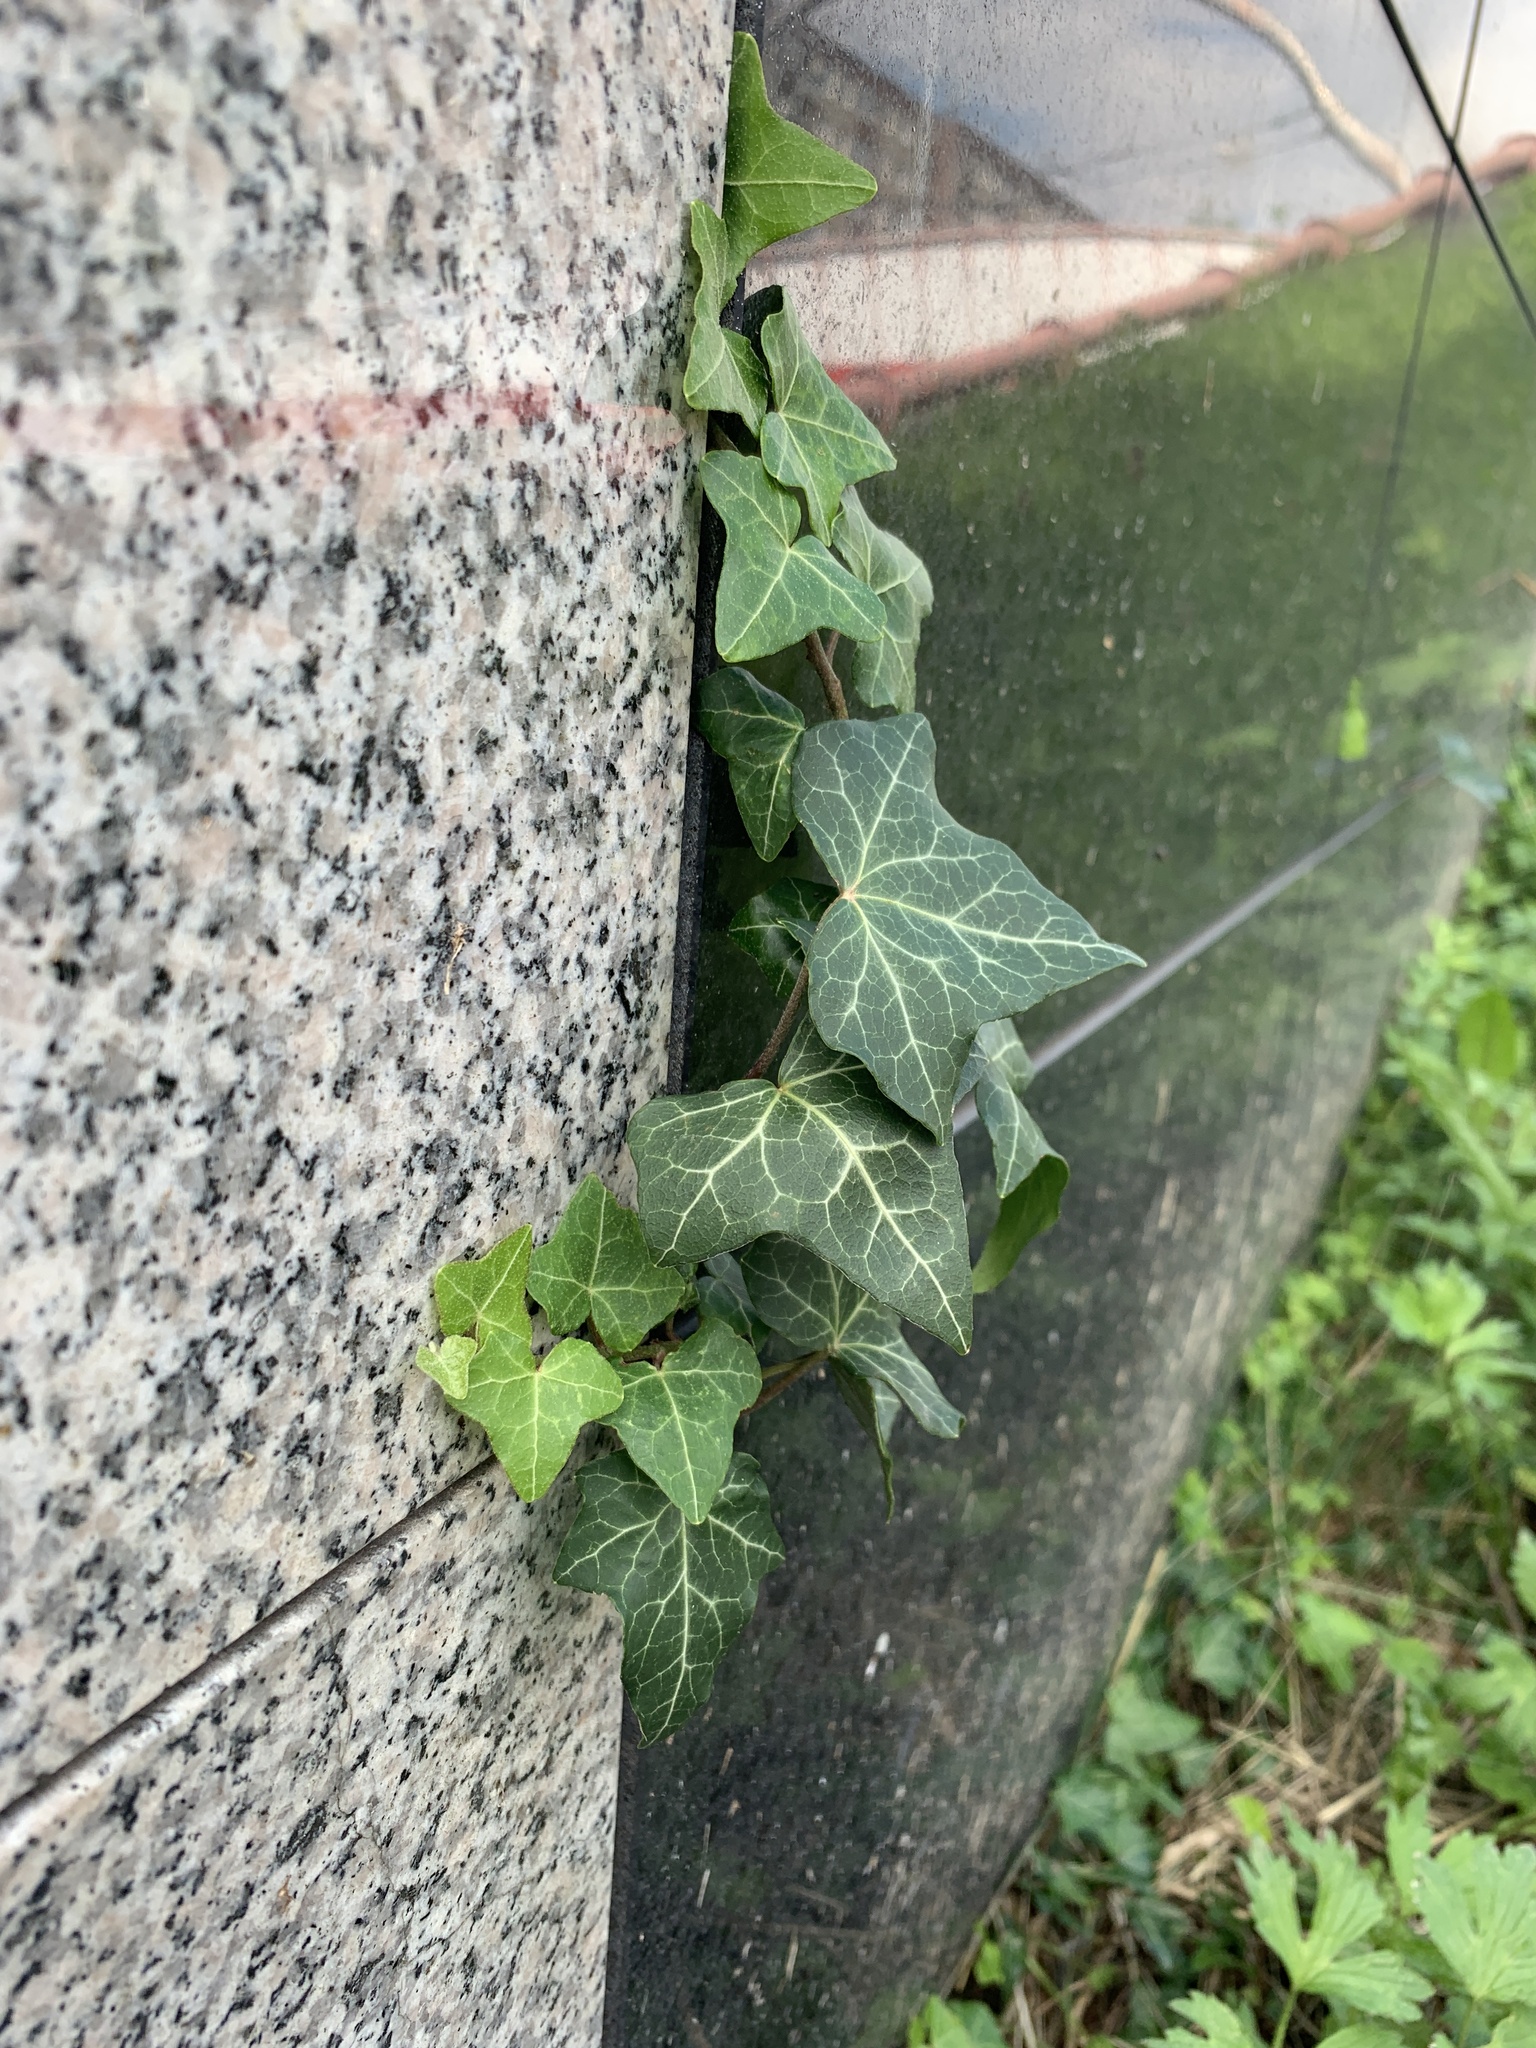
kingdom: Plantae
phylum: Tracheophyta
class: Magnoliopsida
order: Apiales
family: Araliaceae
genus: Hedera
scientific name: Hedera helix
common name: Ivy
